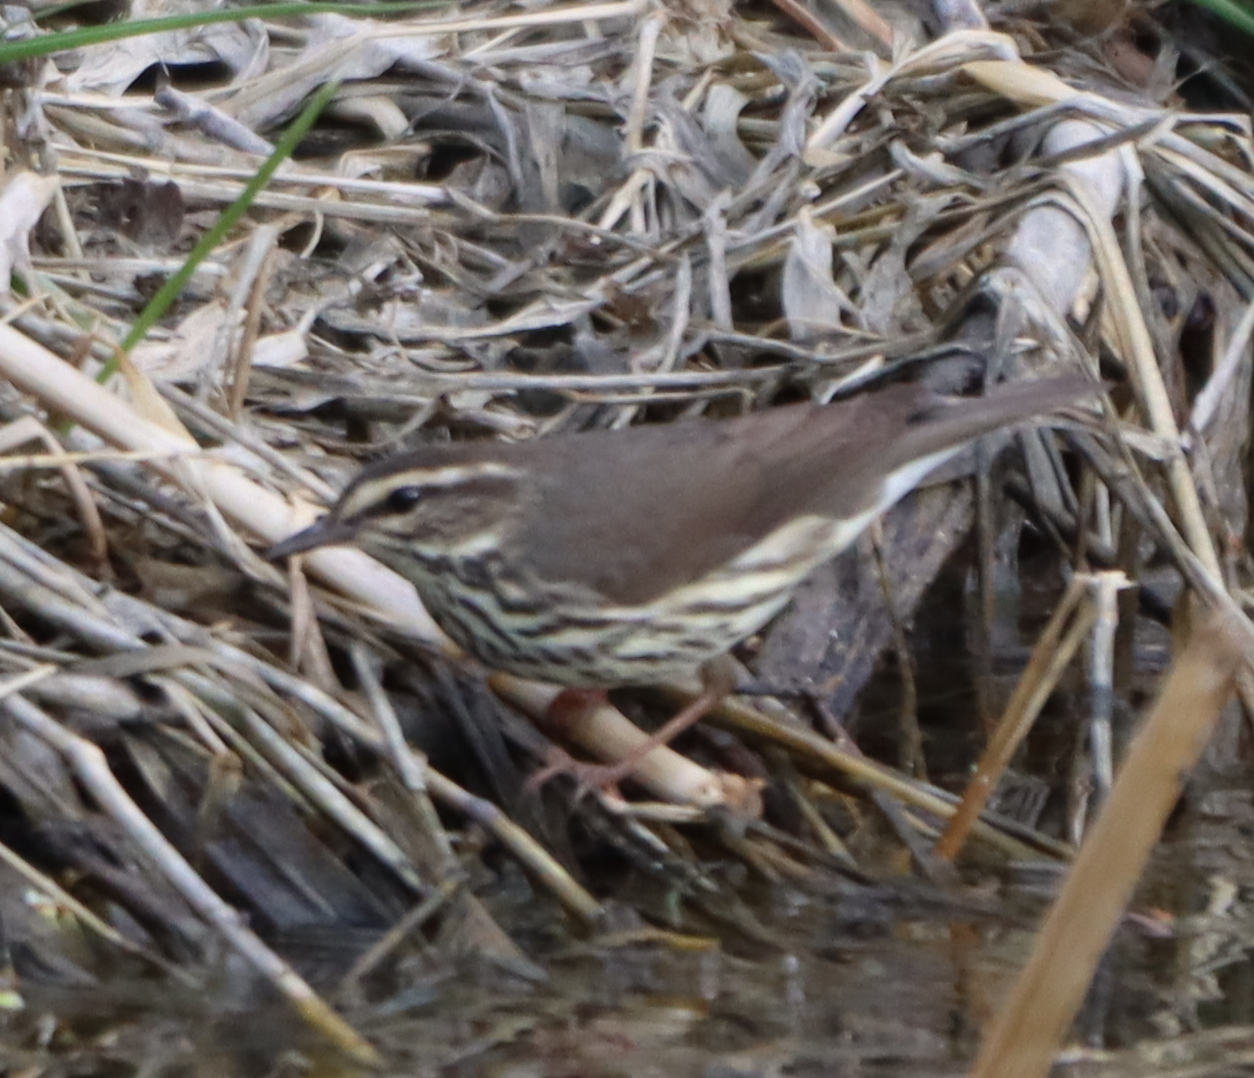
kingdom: Animalia
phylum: Chordata
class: Aves
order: Passeriformes
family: Parulidae
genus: Parkesia
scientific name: Parkesia noveboracensis
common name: Northern waterthrush
